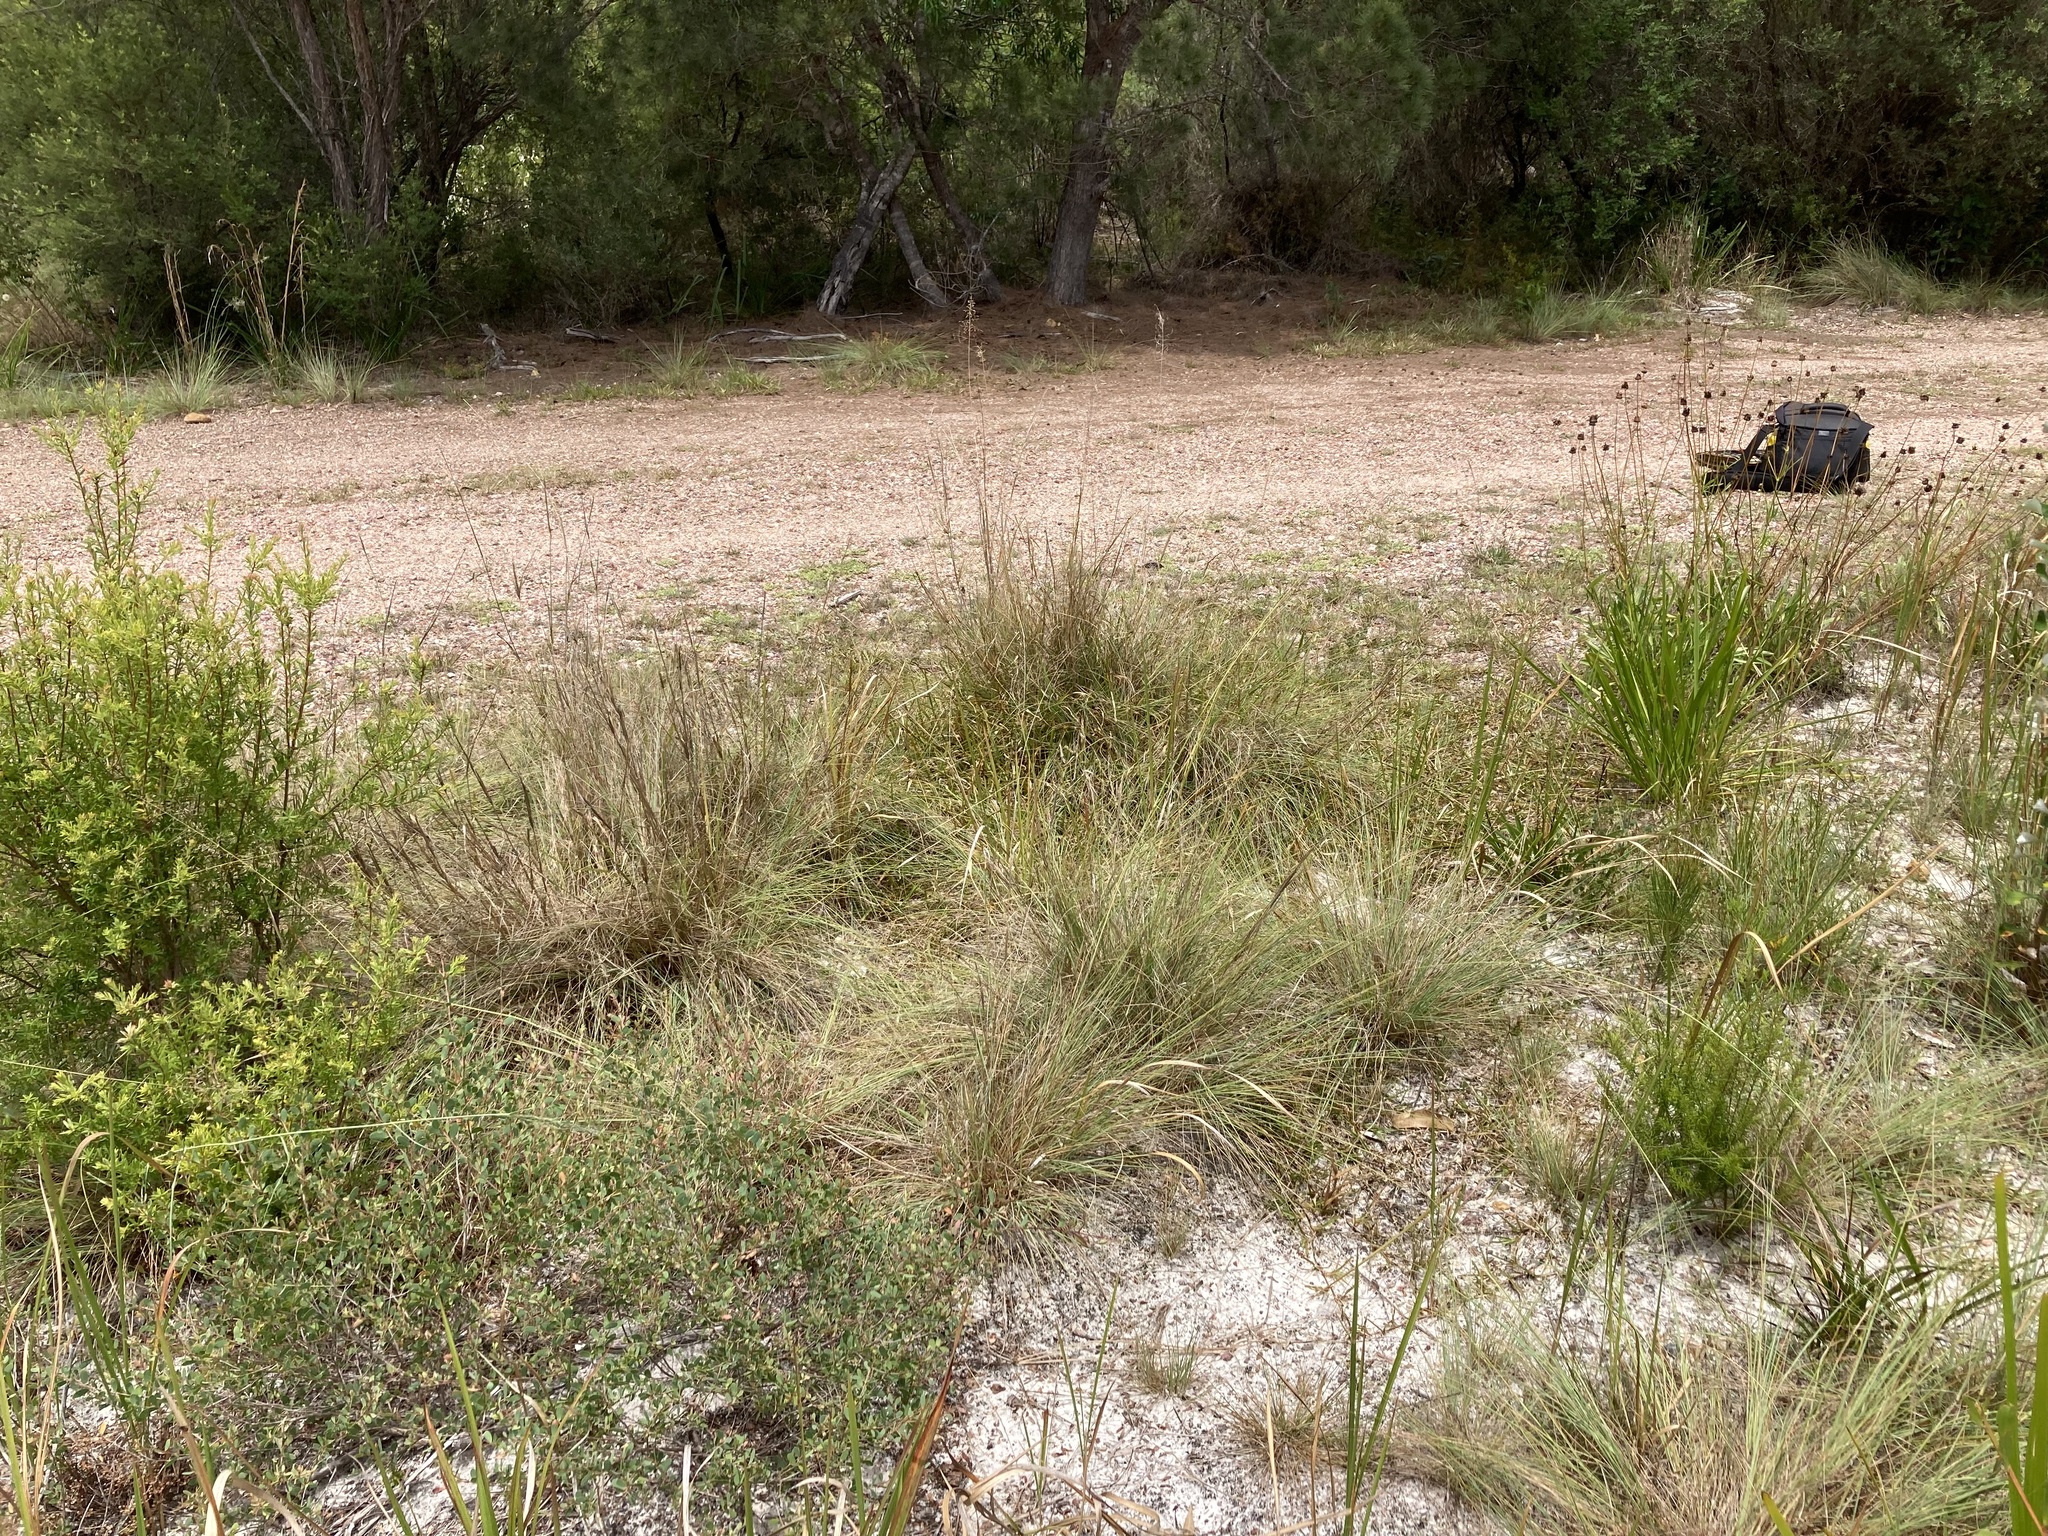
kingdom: Plantae
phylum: Tracheophyta
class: Liliopsida
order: Poales
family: Poaceae
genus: Eragrostis
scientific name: Eragrostis curvula
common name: African love-grass
